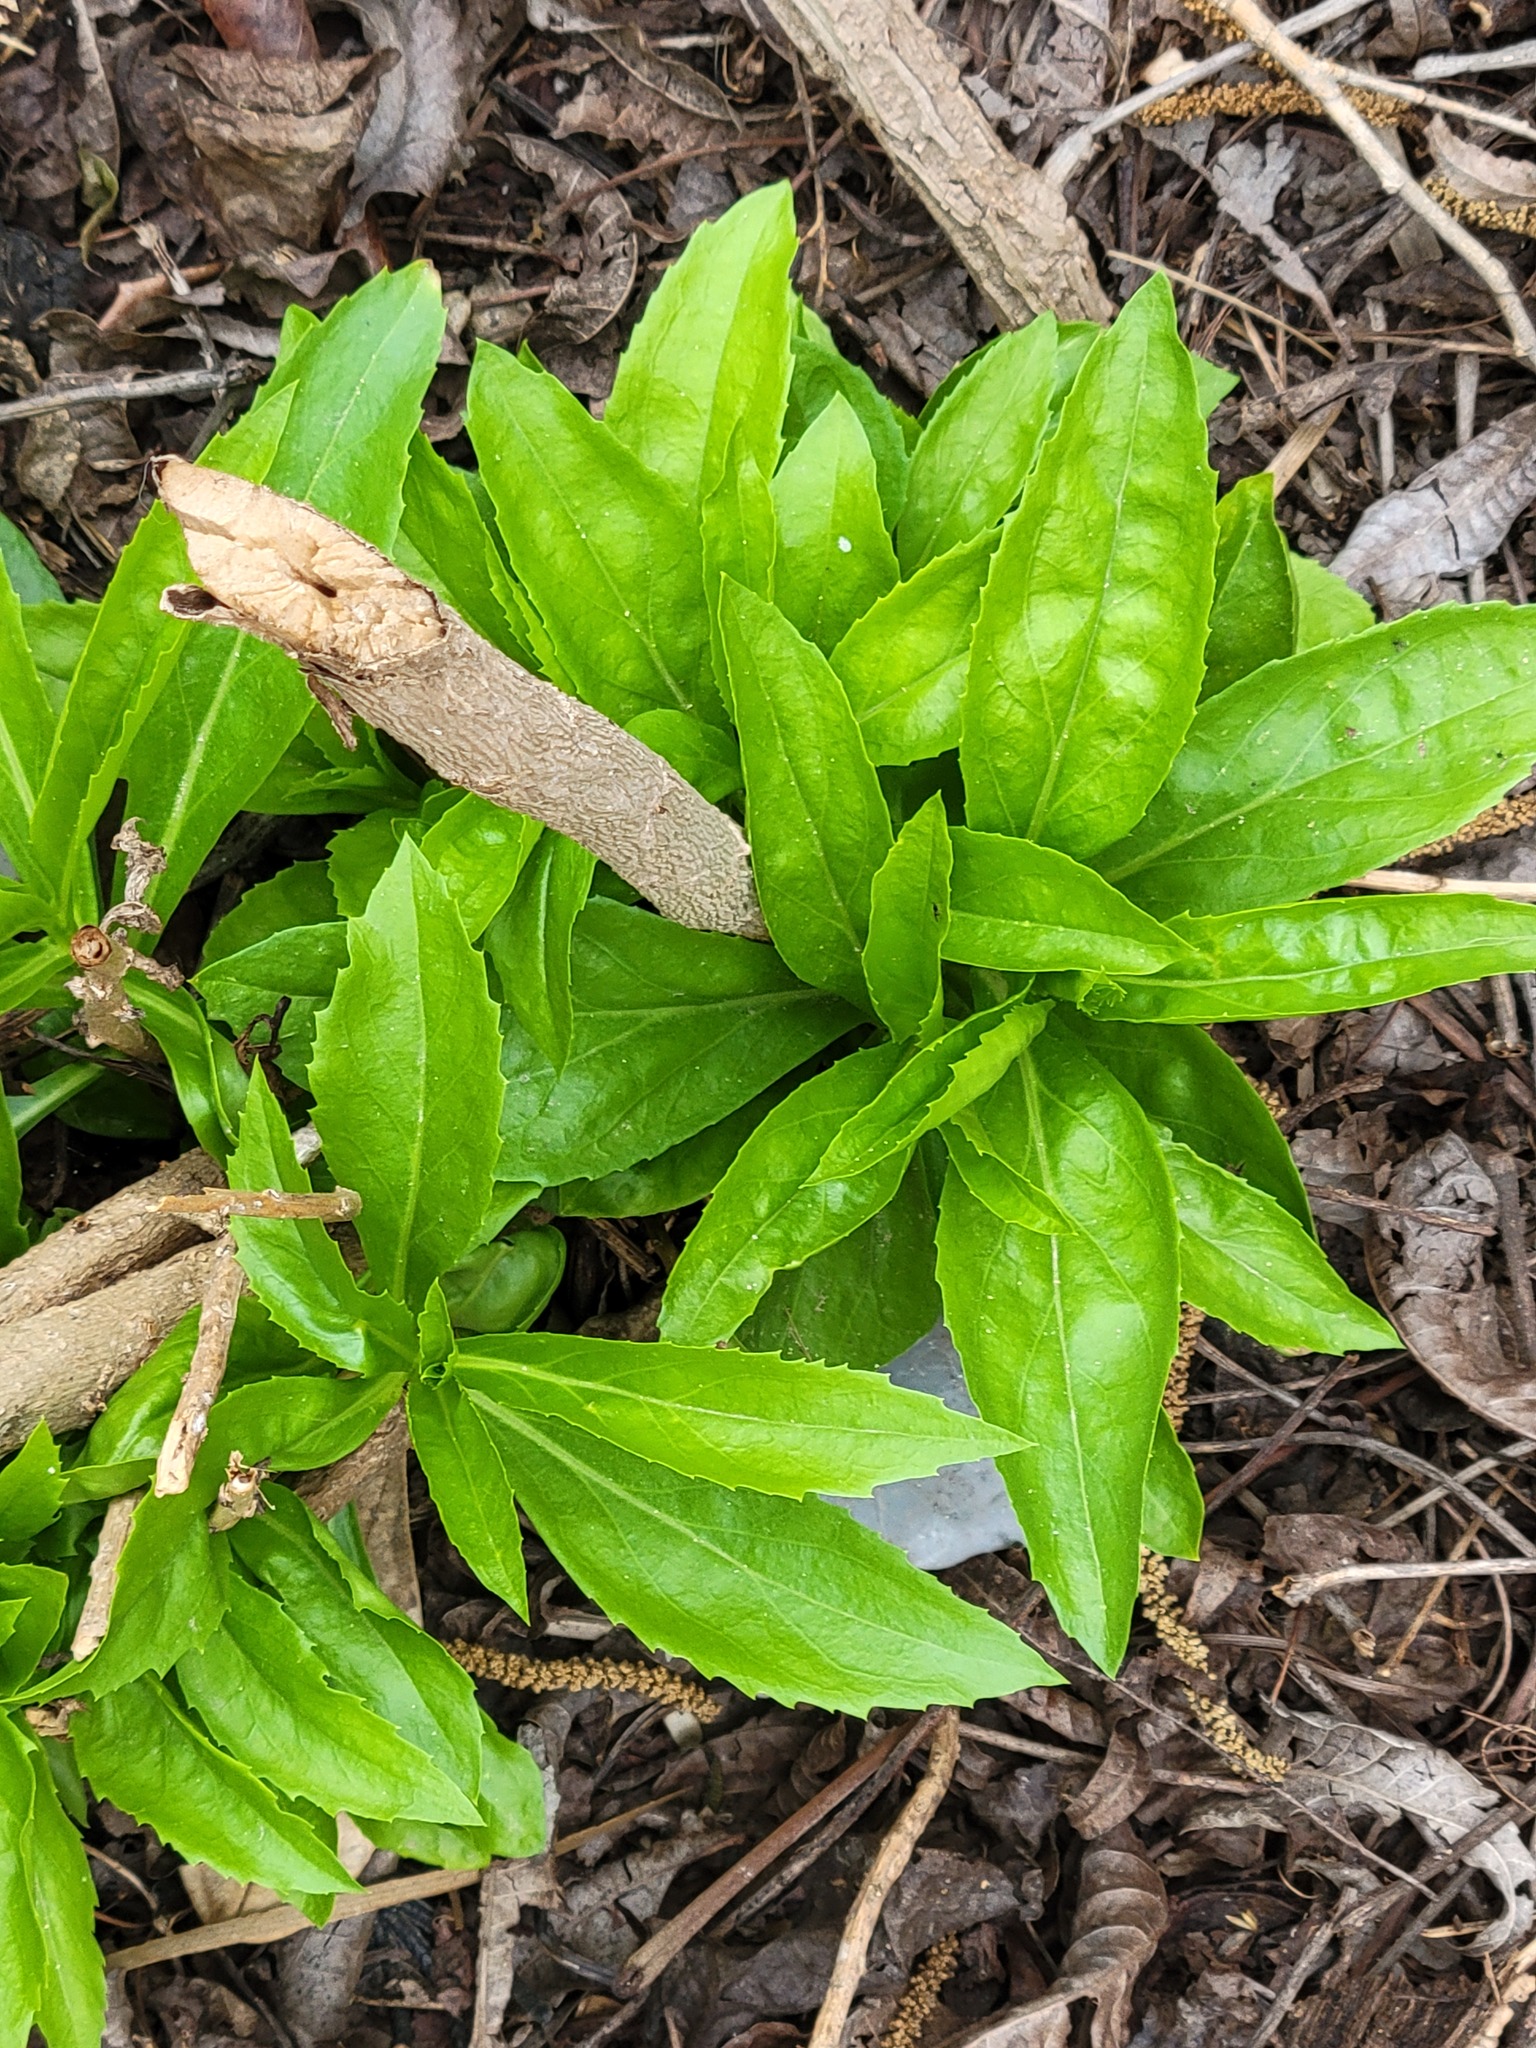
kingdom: Plantae
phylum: Tracheophyta
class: Magnoliopsida
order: Lamiales
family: Scrophulariaceae
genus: Capraria
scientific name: Capraria mexicana
